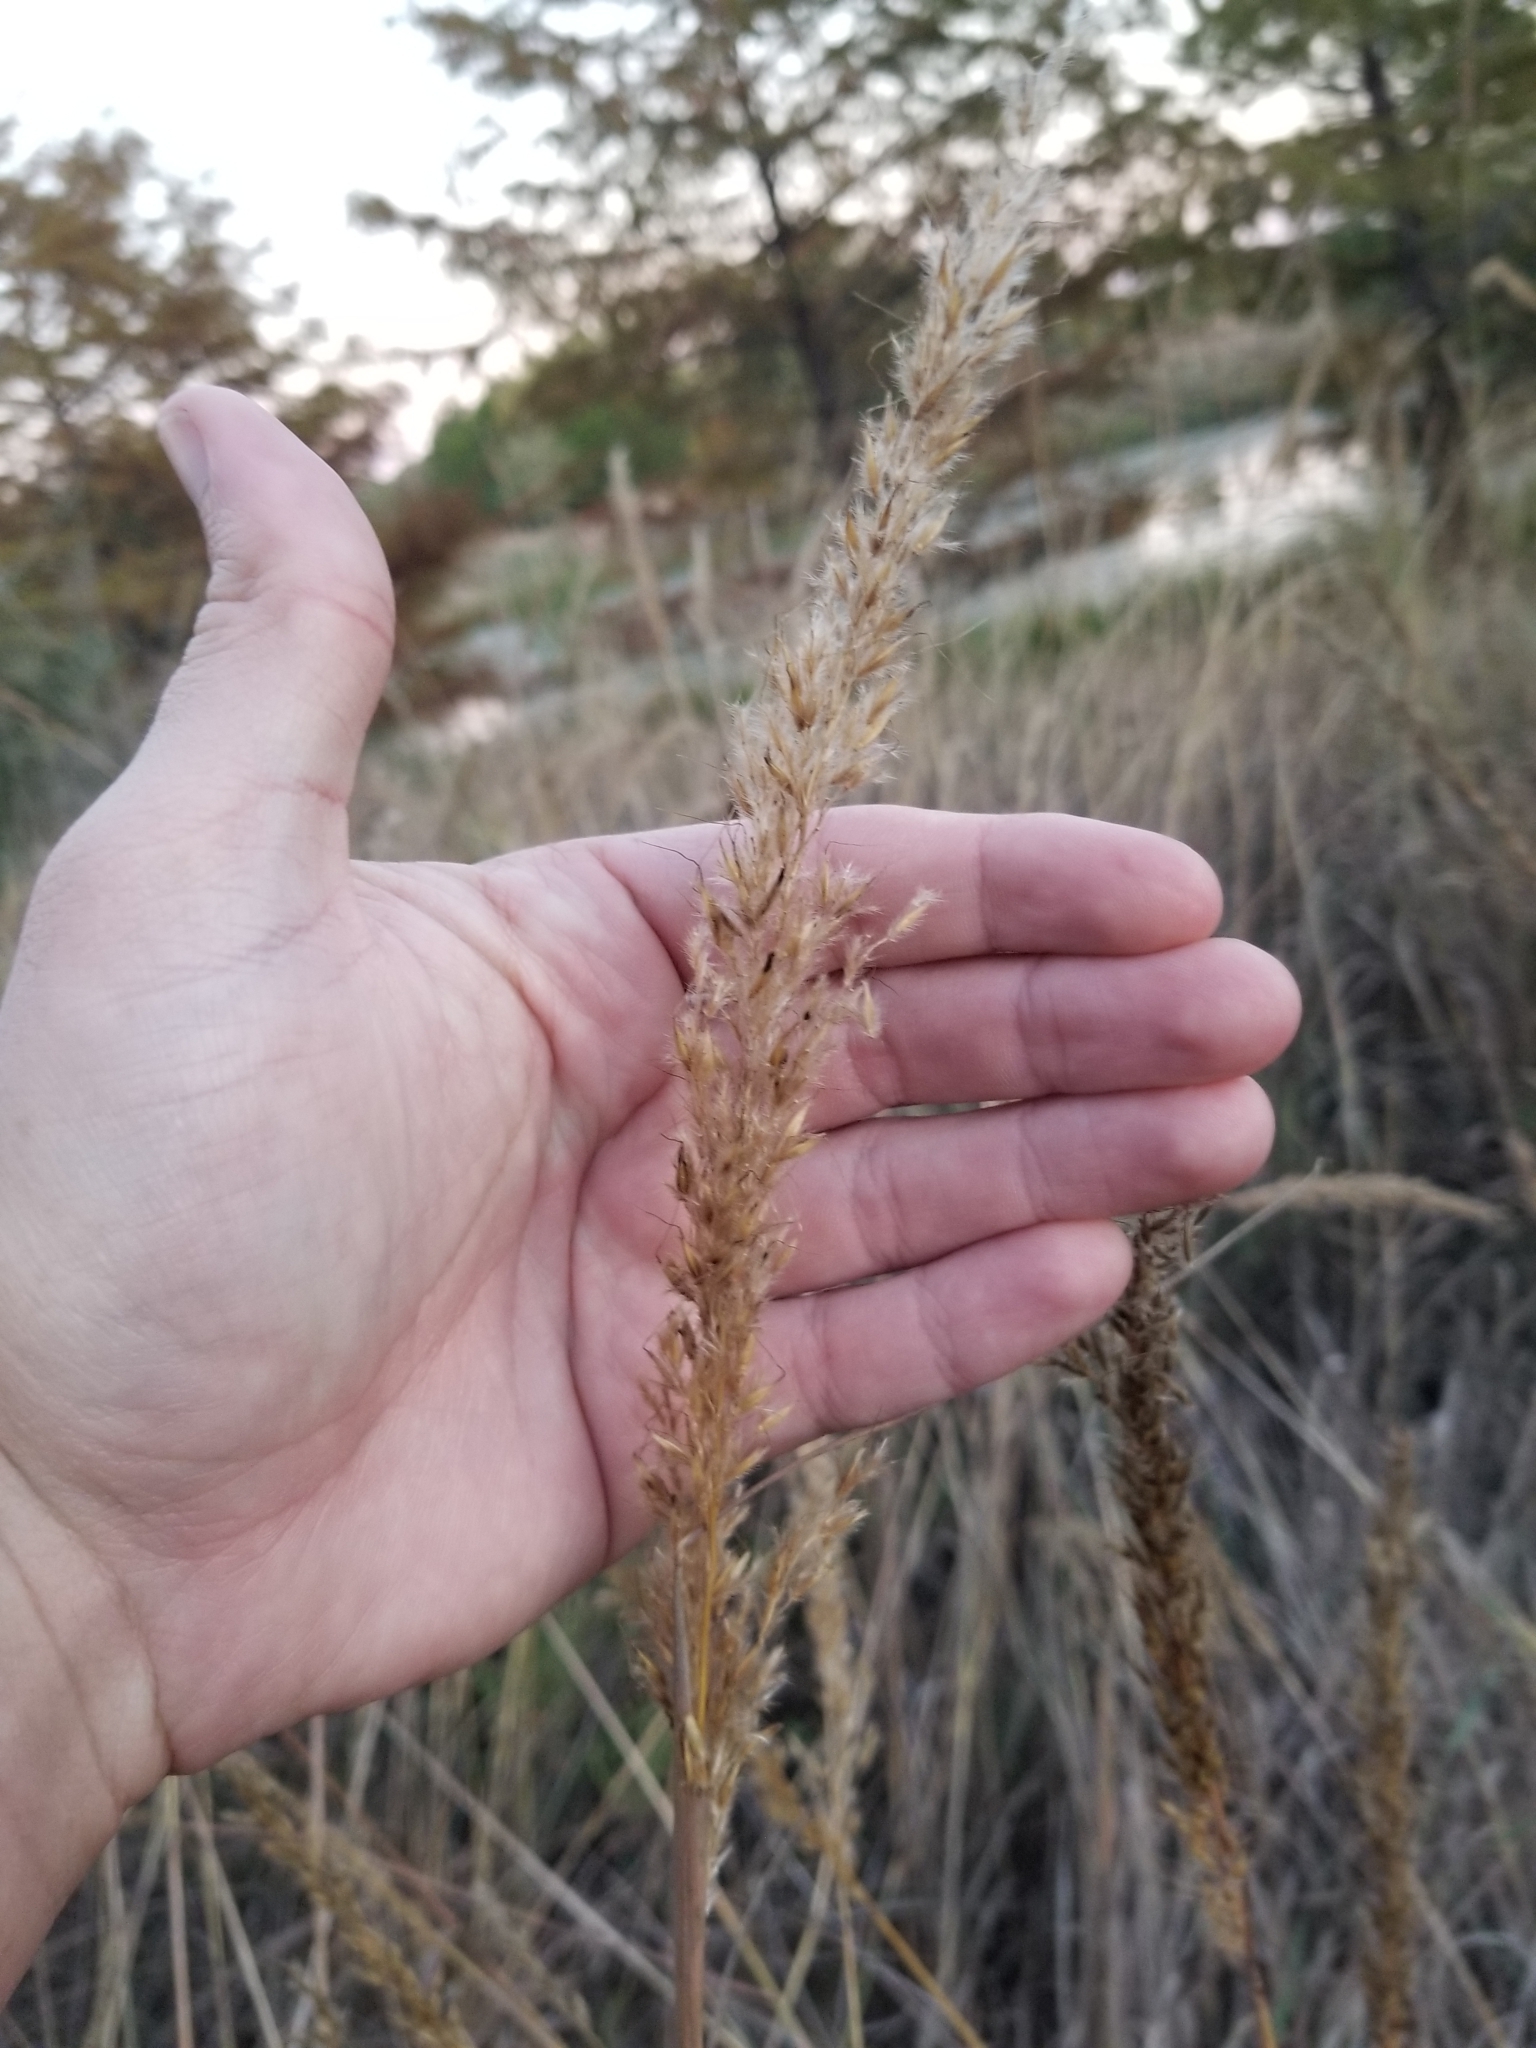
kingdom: Plantae
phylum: Tracheophyta
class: Liliopsida
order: Poales
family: Poaceae
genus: Sorghastrum
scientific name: Sorghastrum nutans
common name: Indian grass
